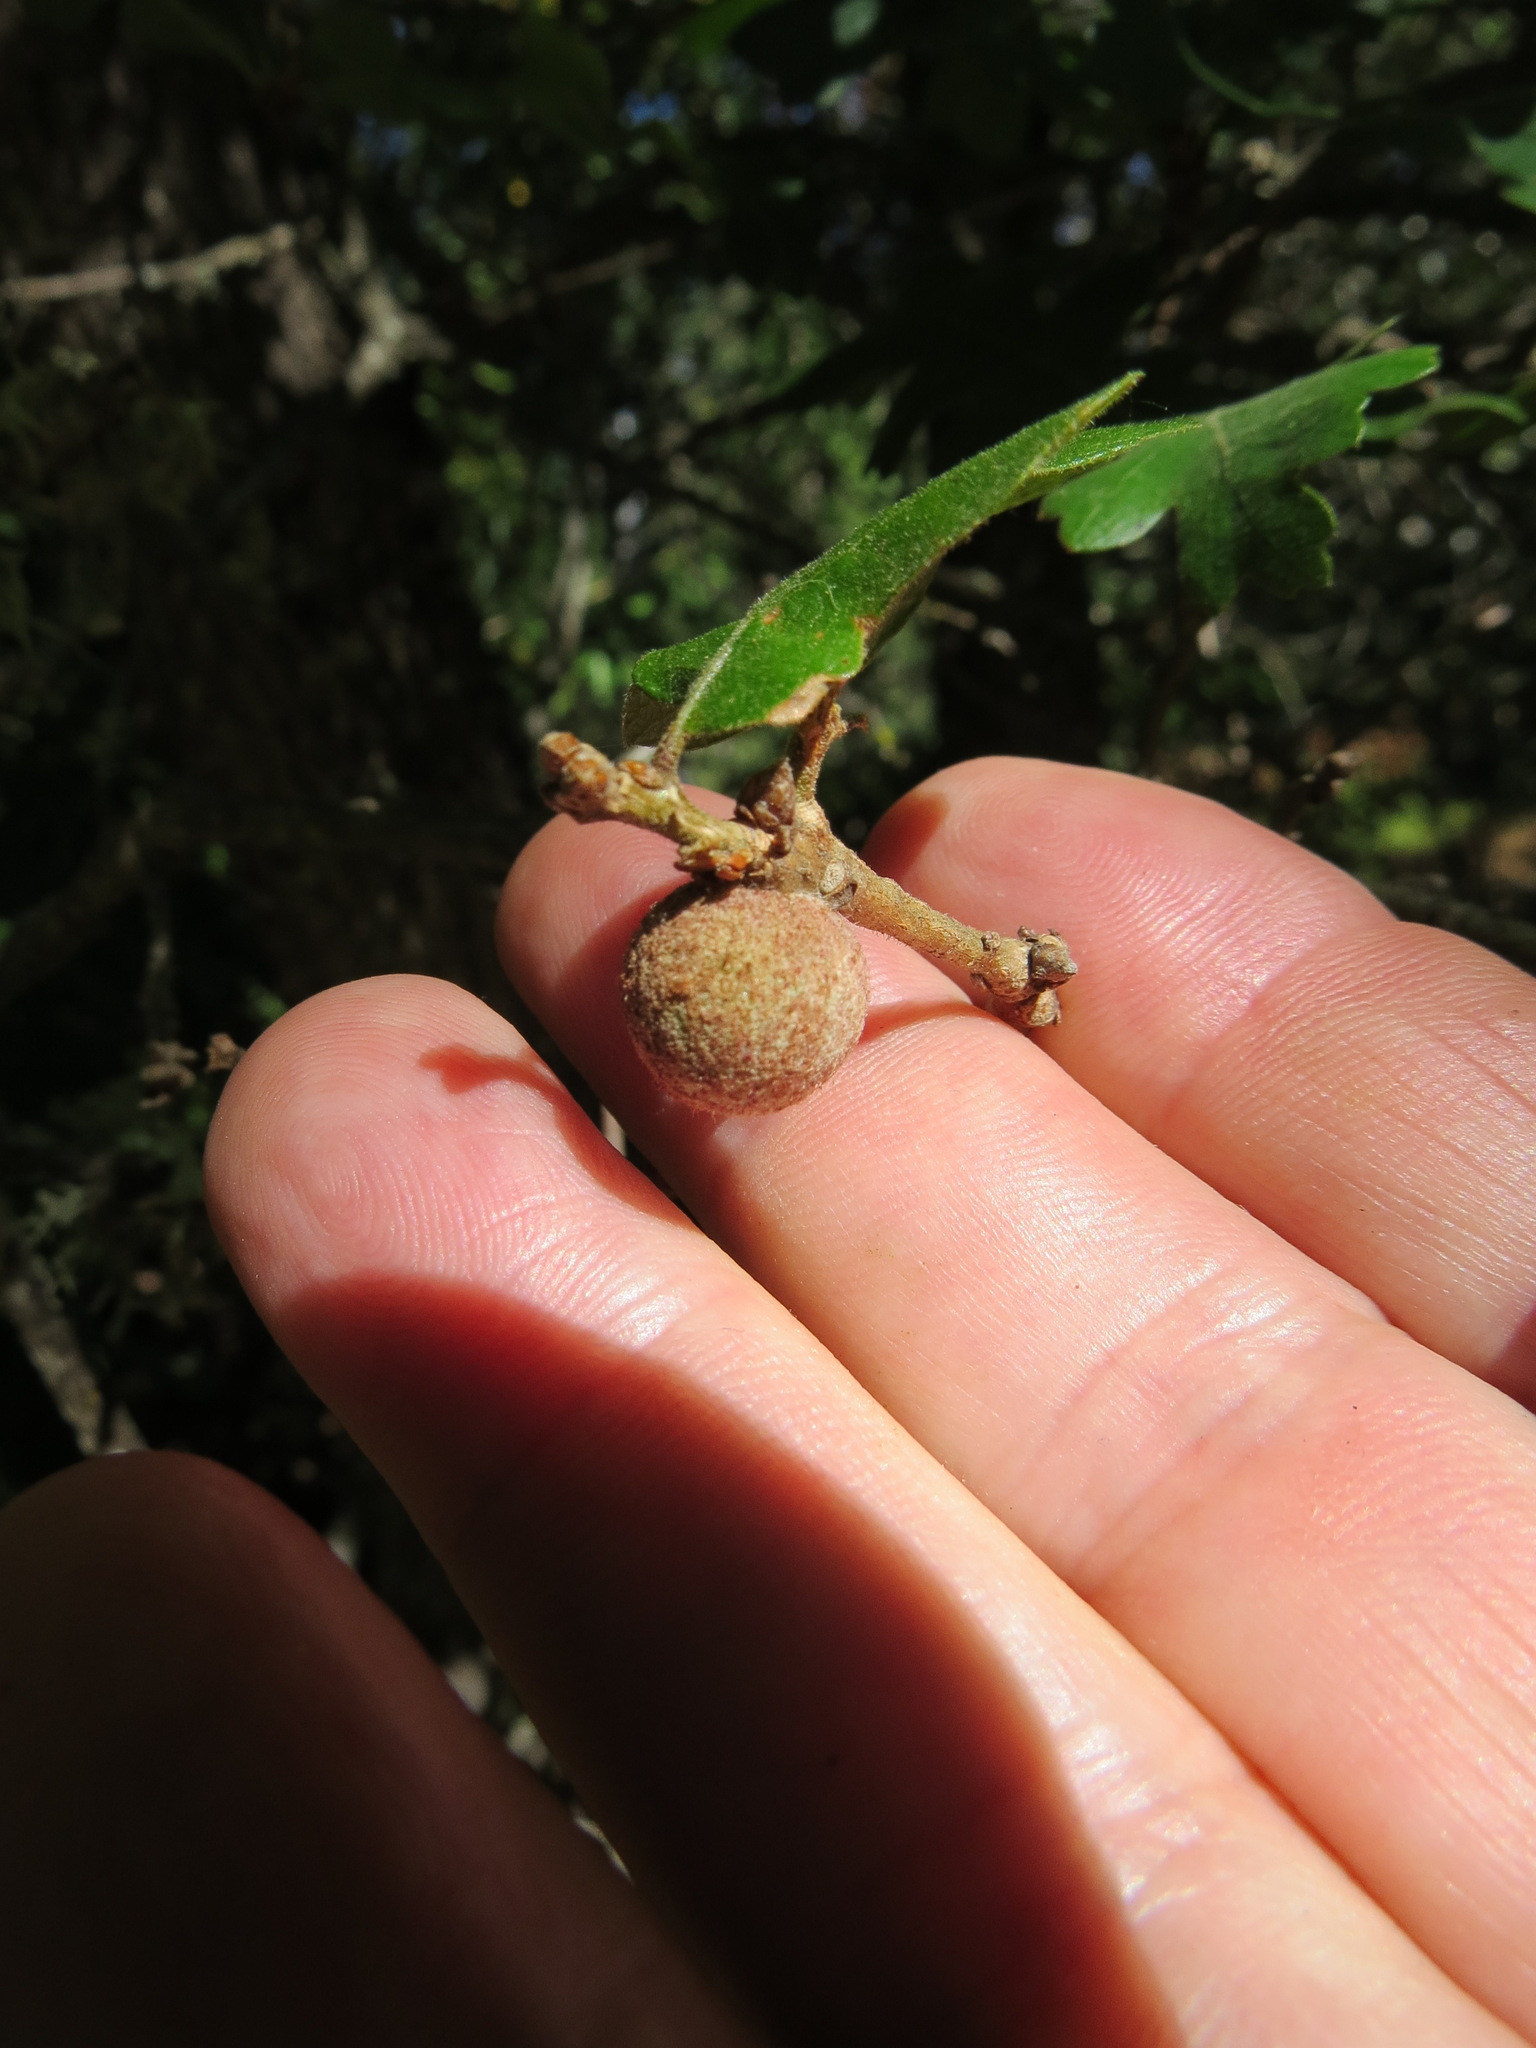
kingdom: Animalia
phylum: Arthropoda
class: Insecta
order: Hymenoptera
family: Cynipidae
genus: Burnettweldia
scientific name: Burnettweldia
